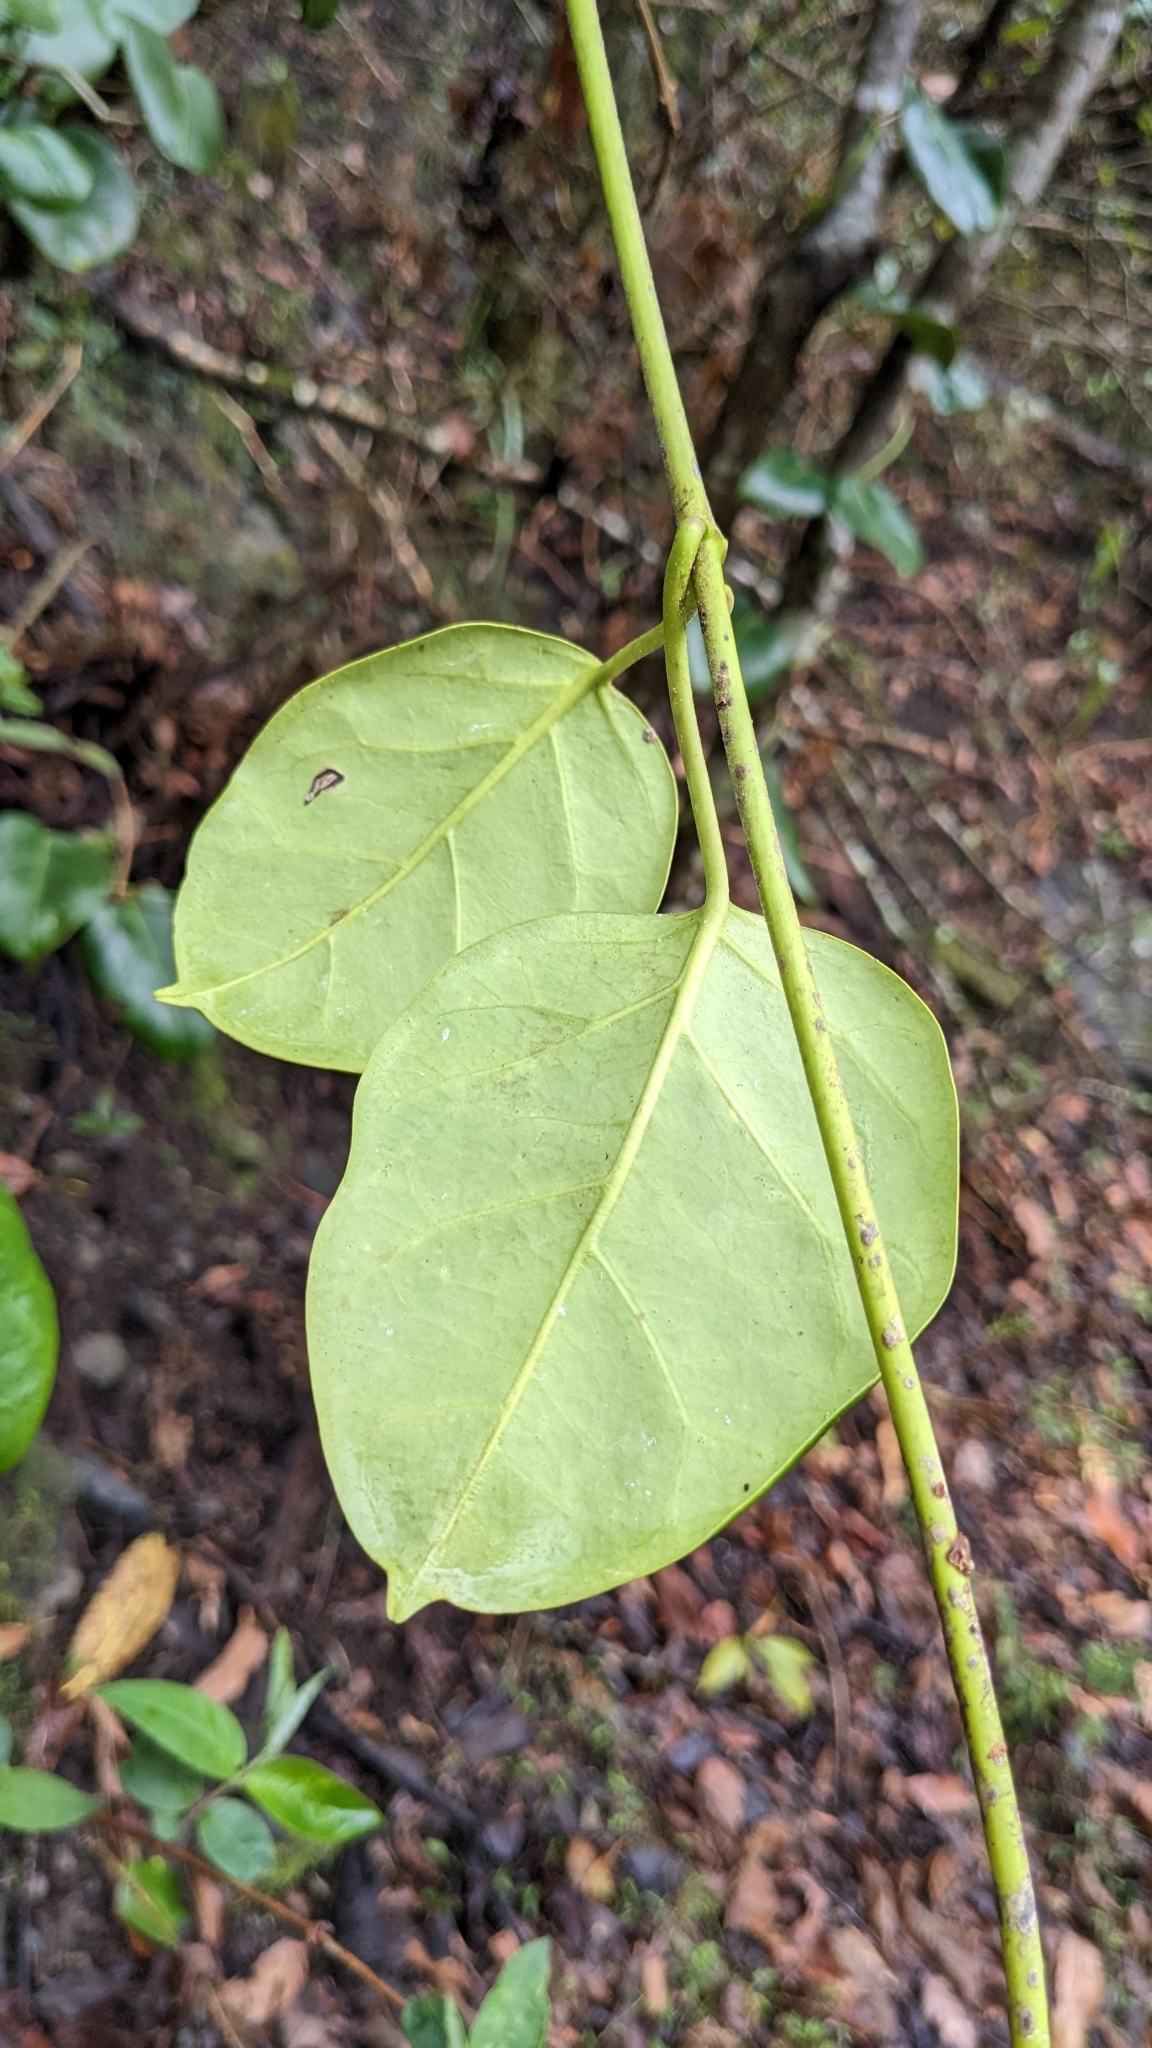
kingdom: Plantae
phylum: Tracheophyta
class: Magnoliopsida
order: Gentianales
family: Apocynaceae
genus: Sinomarsdenia
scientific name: Sinomarsdenia formosana
